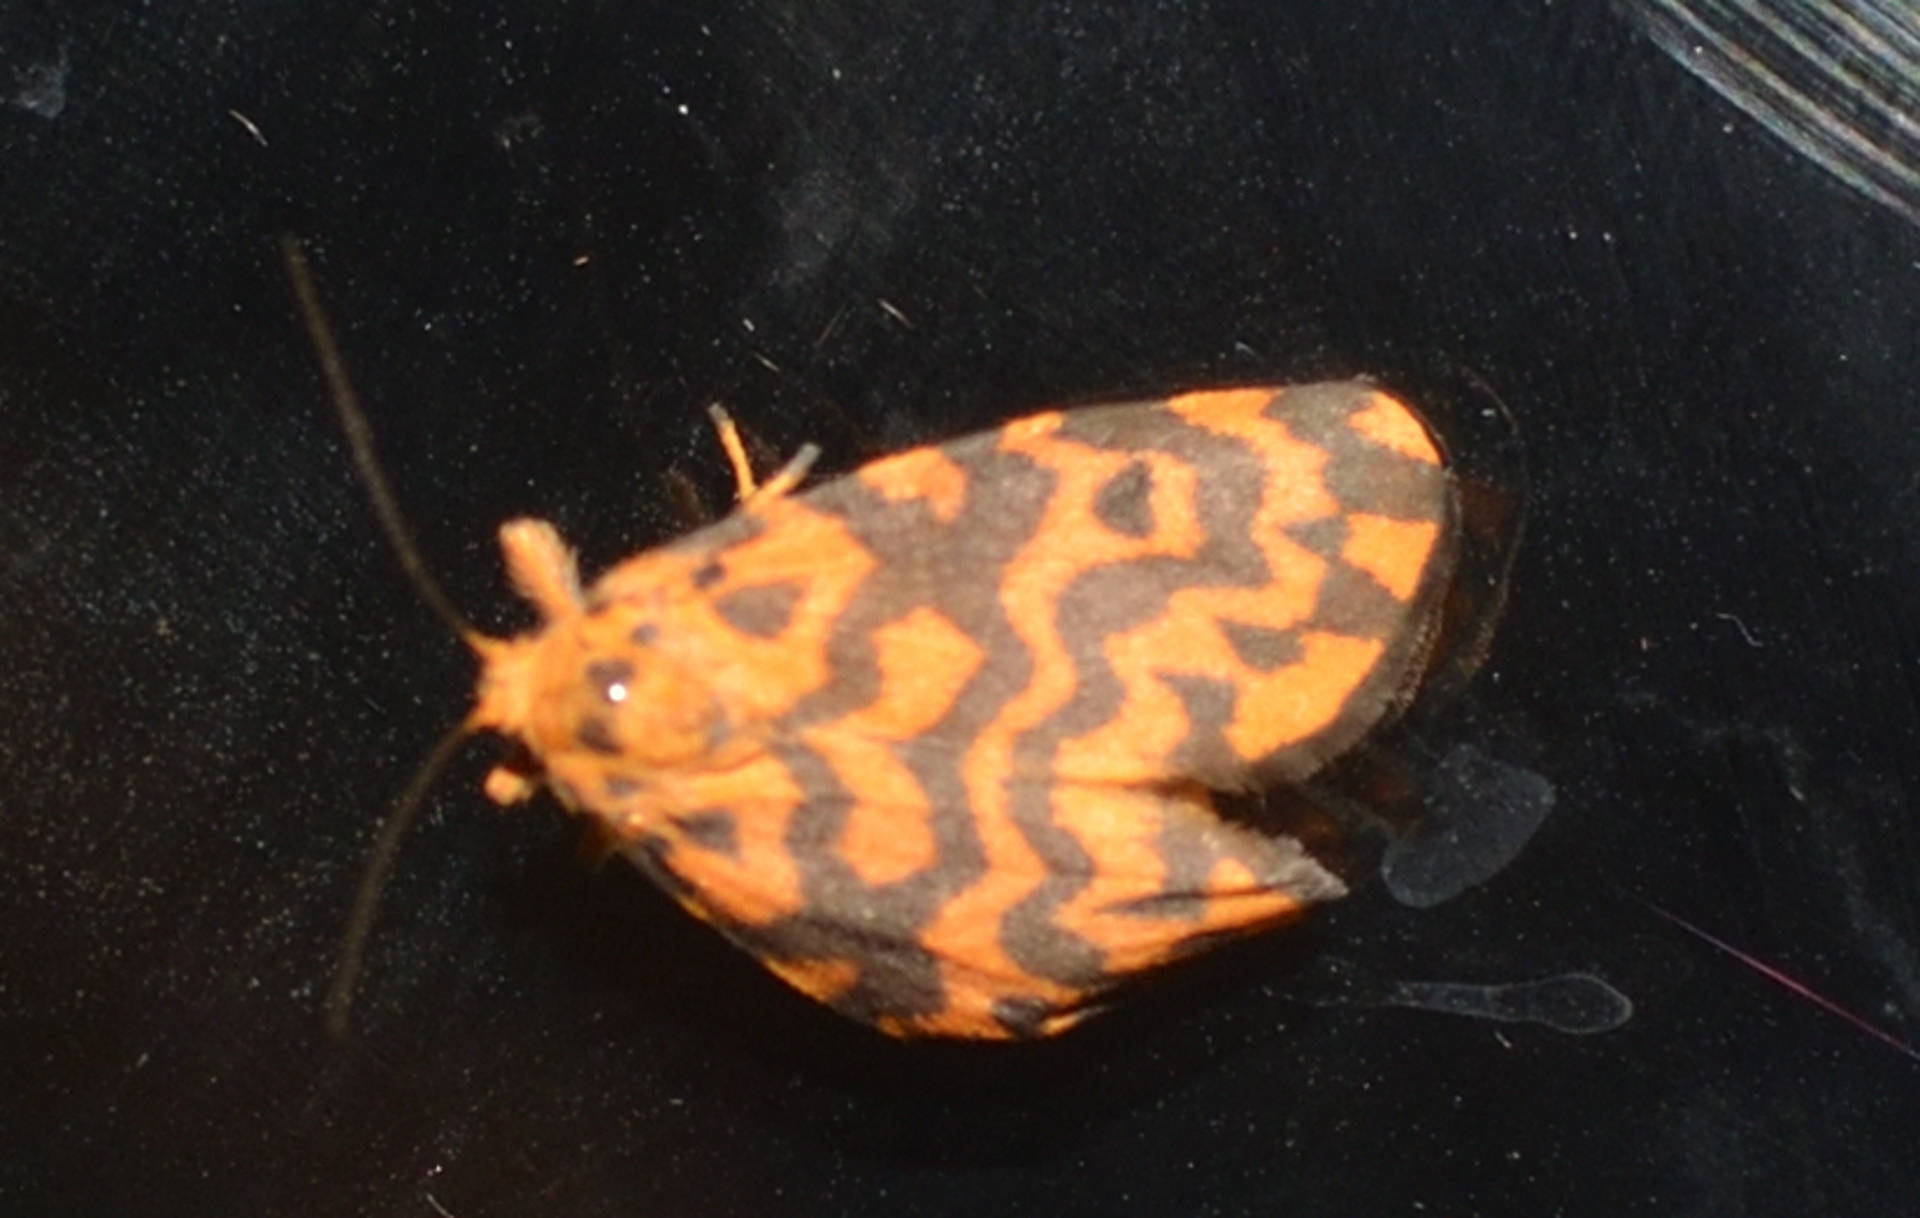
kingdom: Animalia
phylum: Arthropoda
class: Insecta
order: Lepidoptera
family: Erebidae
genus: Nepita
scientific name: Nepita conferta
